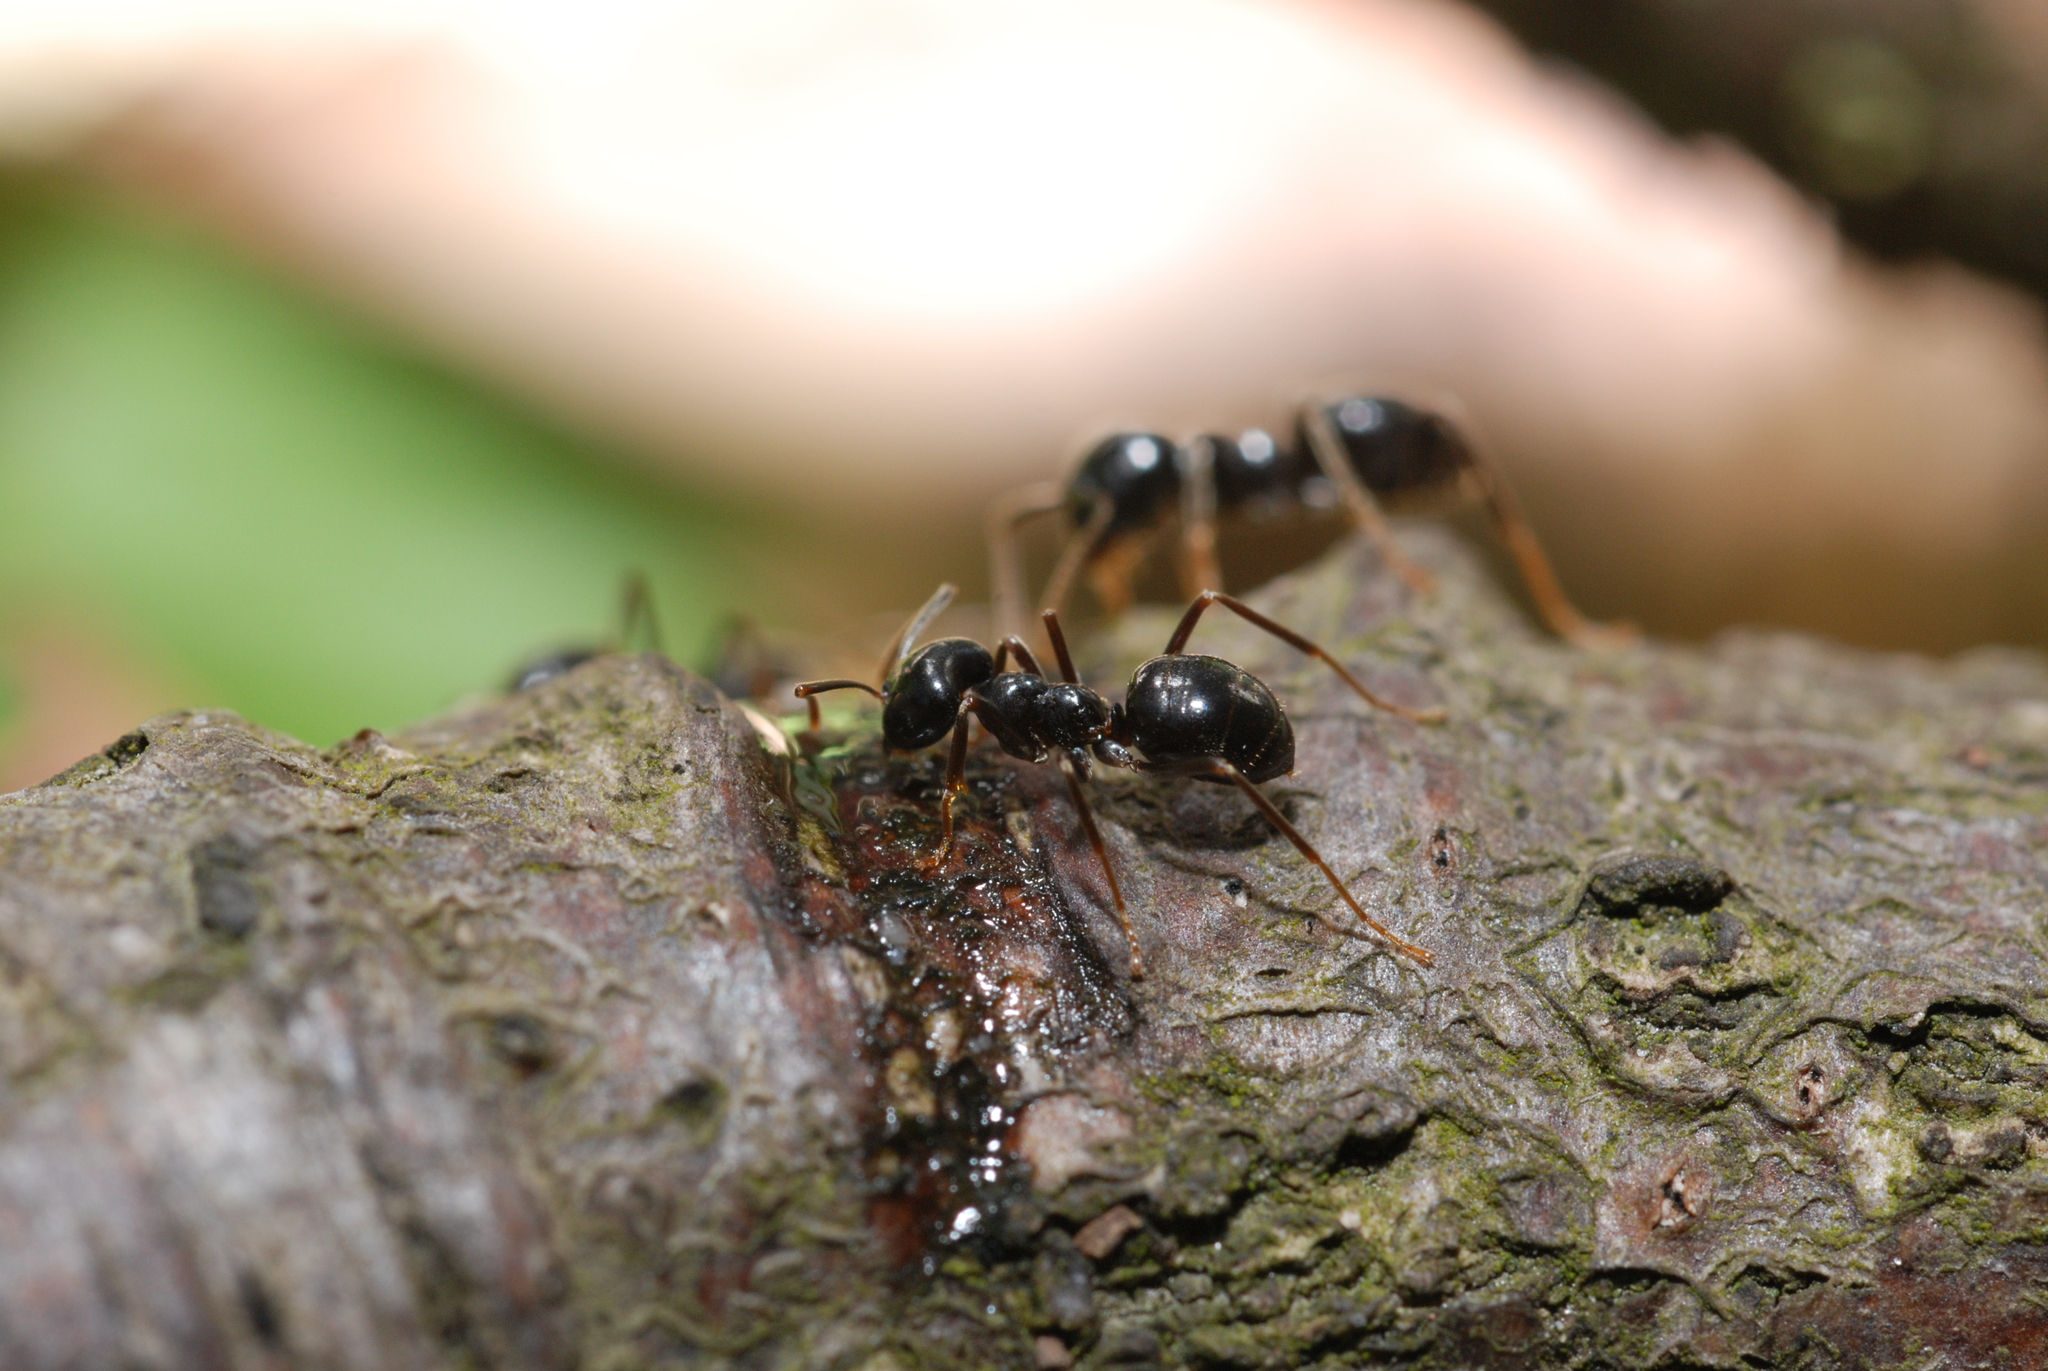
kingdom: Animalia
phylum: Arthropoda
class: Insecta
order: Hymenoptera
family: Formicidae
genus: Lasius
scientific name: Lasius fuliginosus
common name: Jet ant
